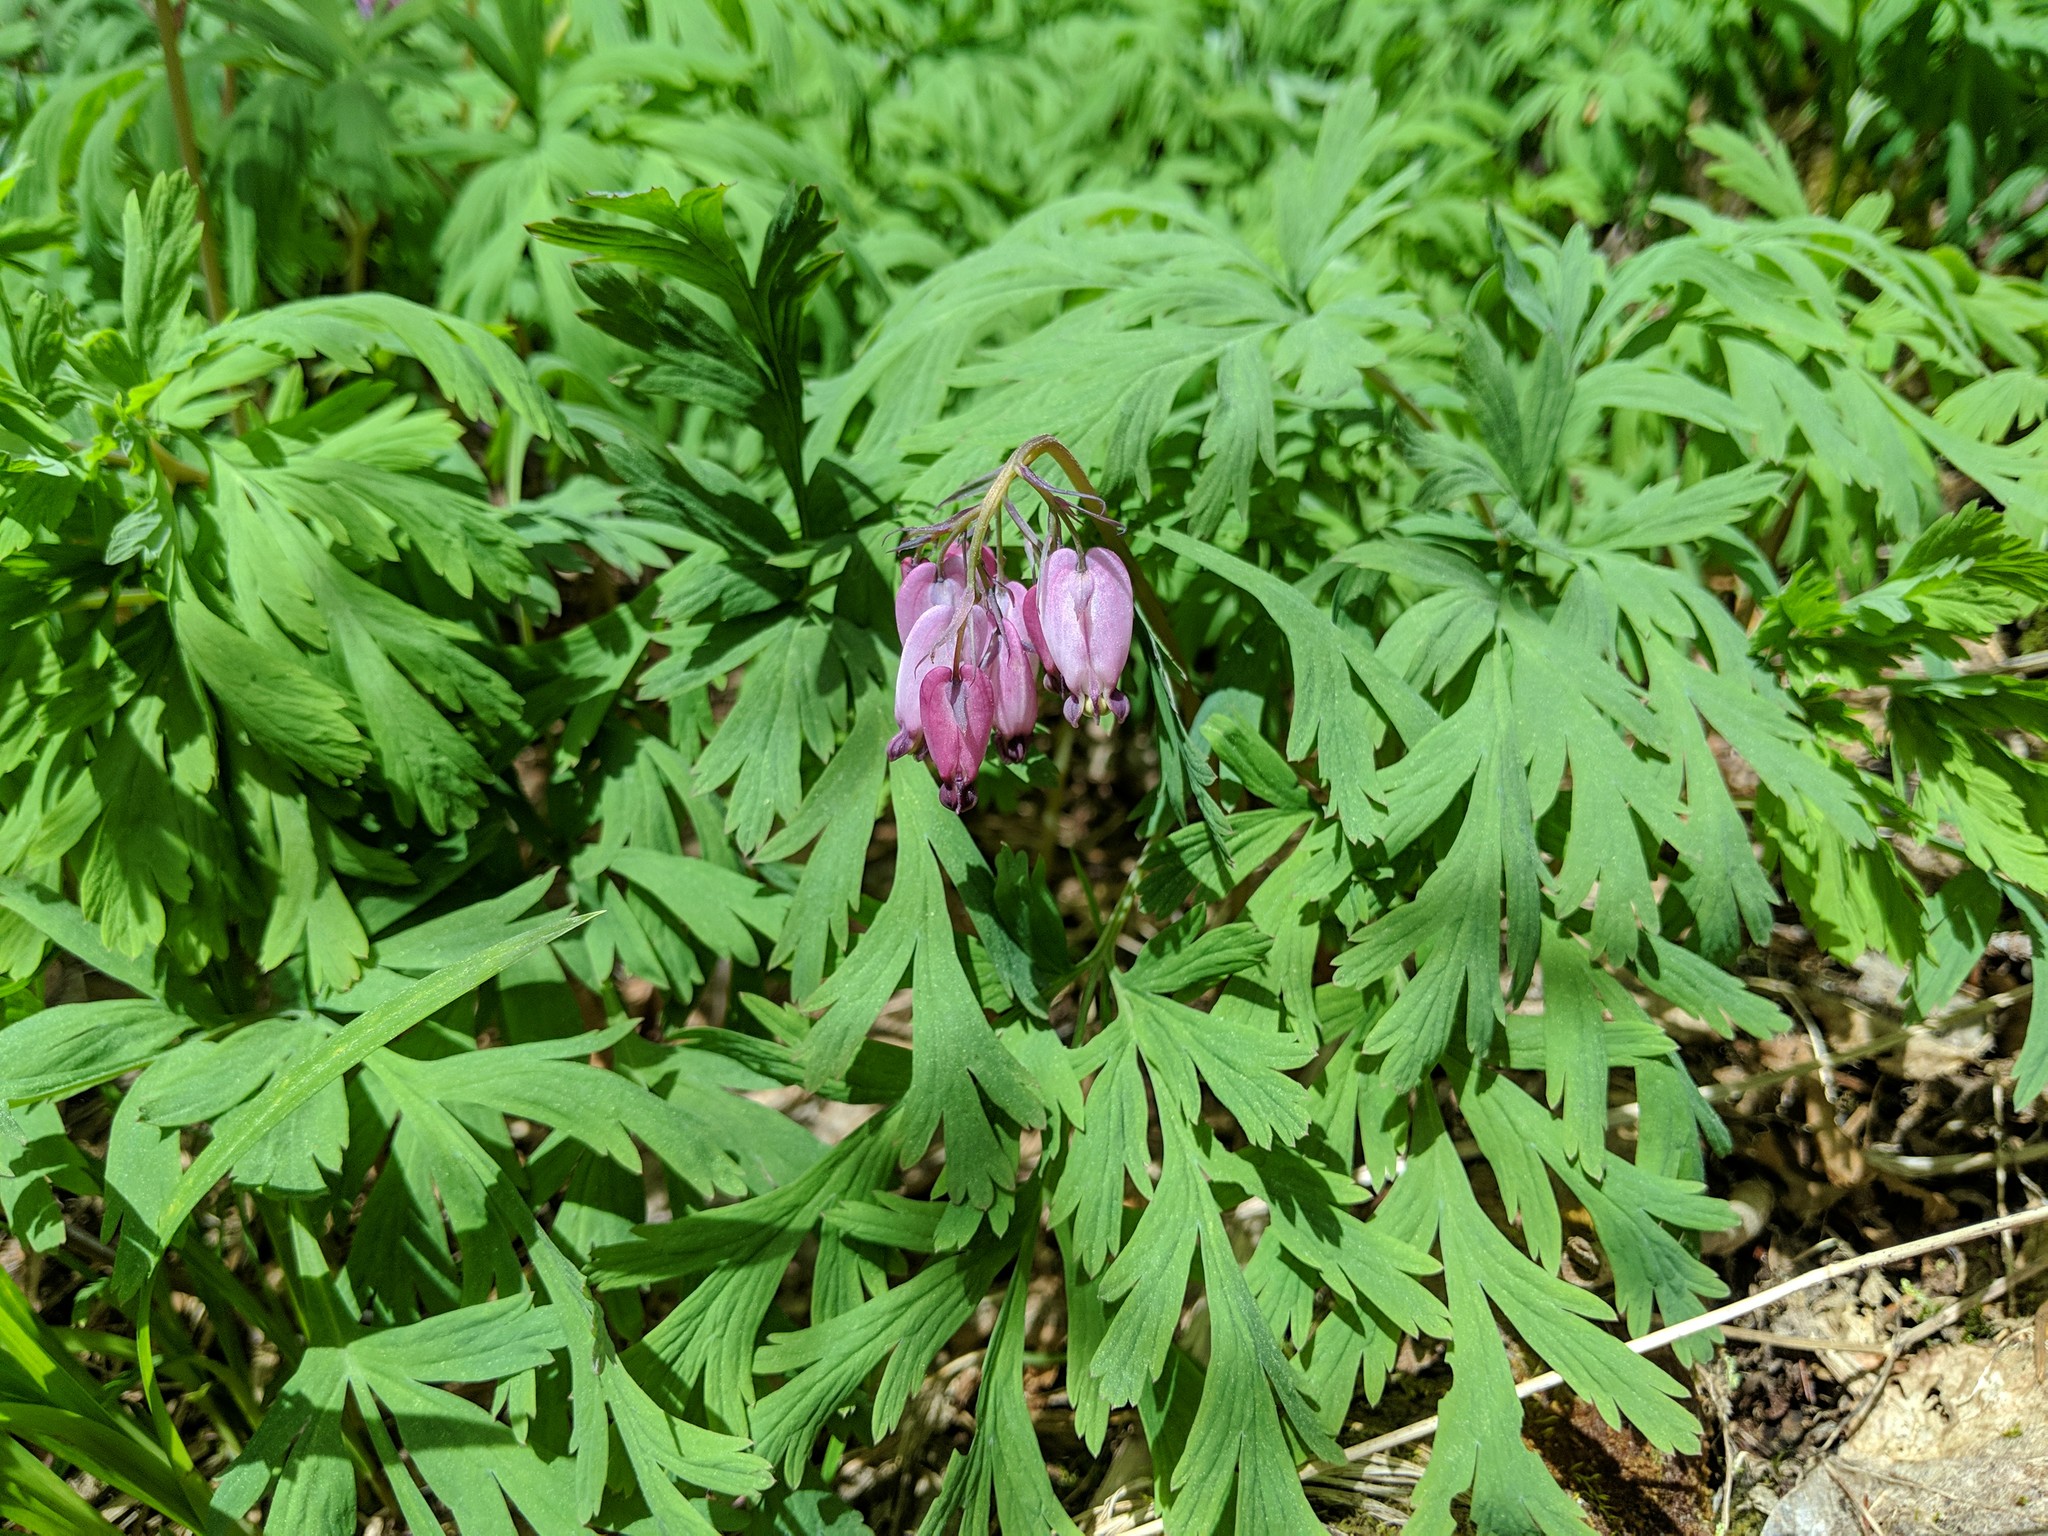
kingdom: Plantae
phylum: Tracheophyta
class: Magnoliopsida
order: Ranunculales
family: Papaveraceae
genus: Dicentra
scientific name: Dicentra formosa
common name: Bleeding-heart
